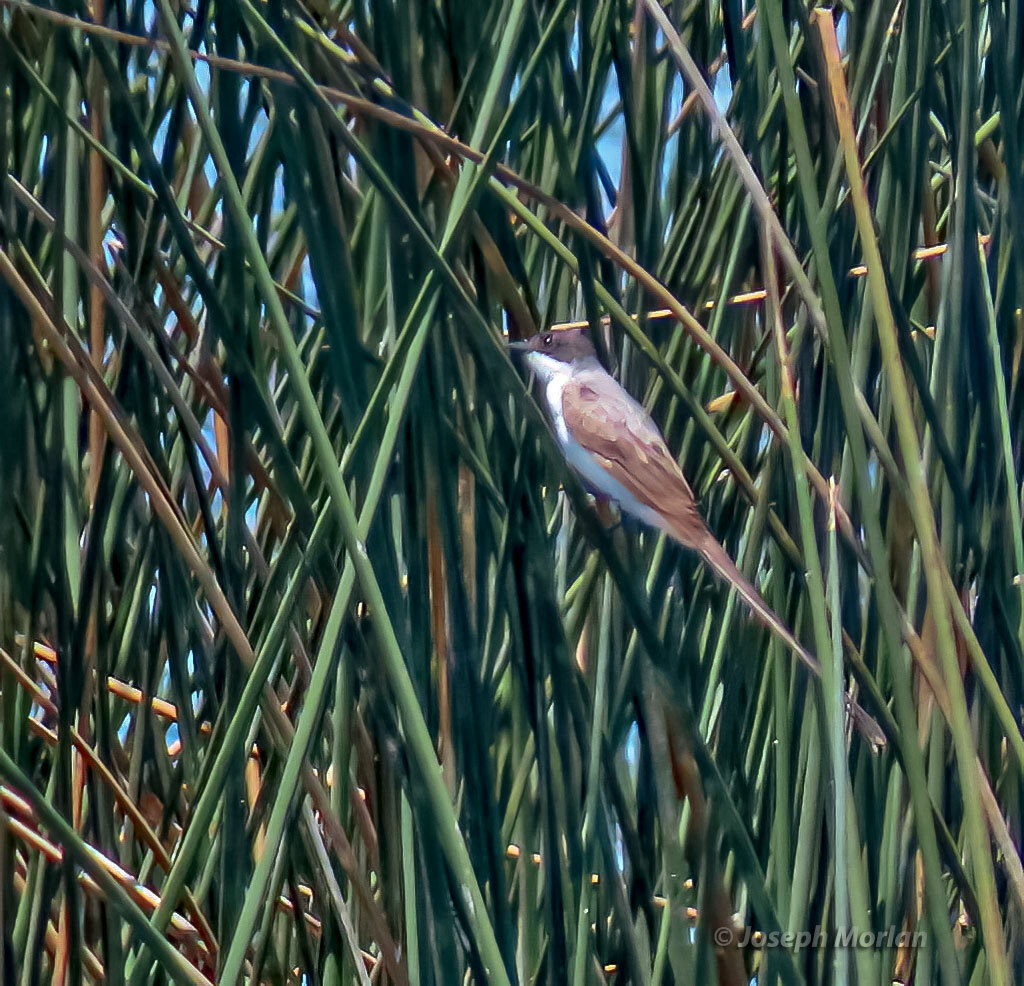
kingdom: Animalia
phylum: Chordata
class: Aves
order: Passeriformes
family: Tyrannidae
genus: Tyrannus
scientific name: Tyrannus savana
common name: Fork-tailed flycatcher
